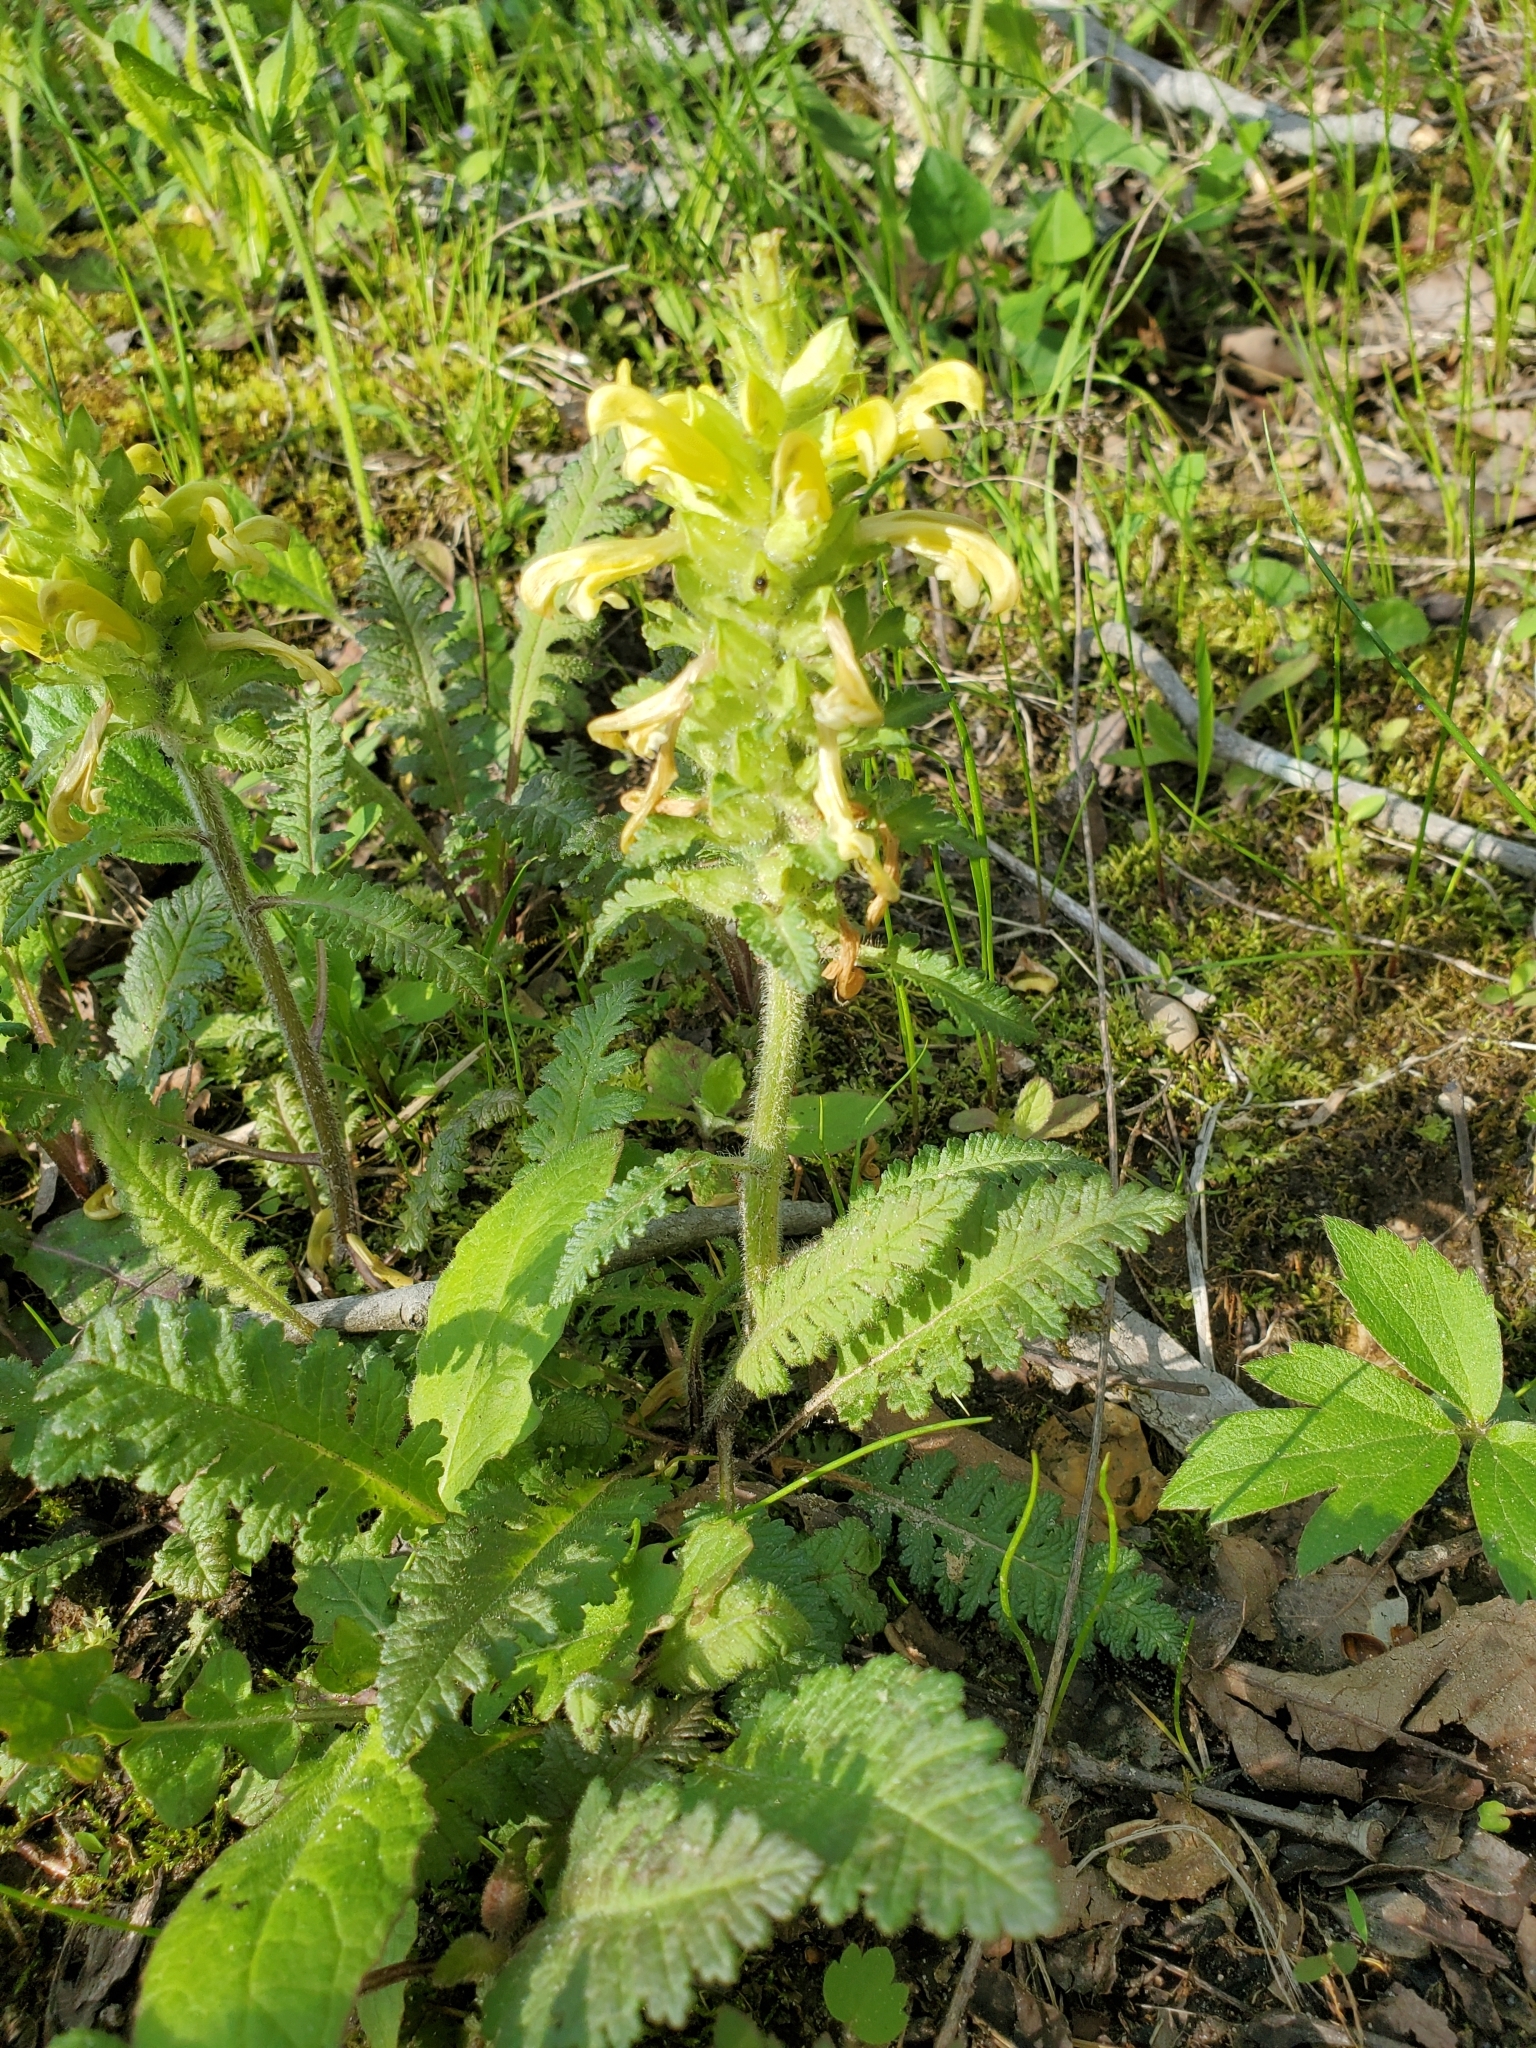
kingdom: Plantae
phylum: Tracheophyta
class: Magnoliopsida
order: Lamiales
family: Orobanchaceae
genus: Pedicularis
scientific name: Pedicularis canadensis
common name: Early lousewort
